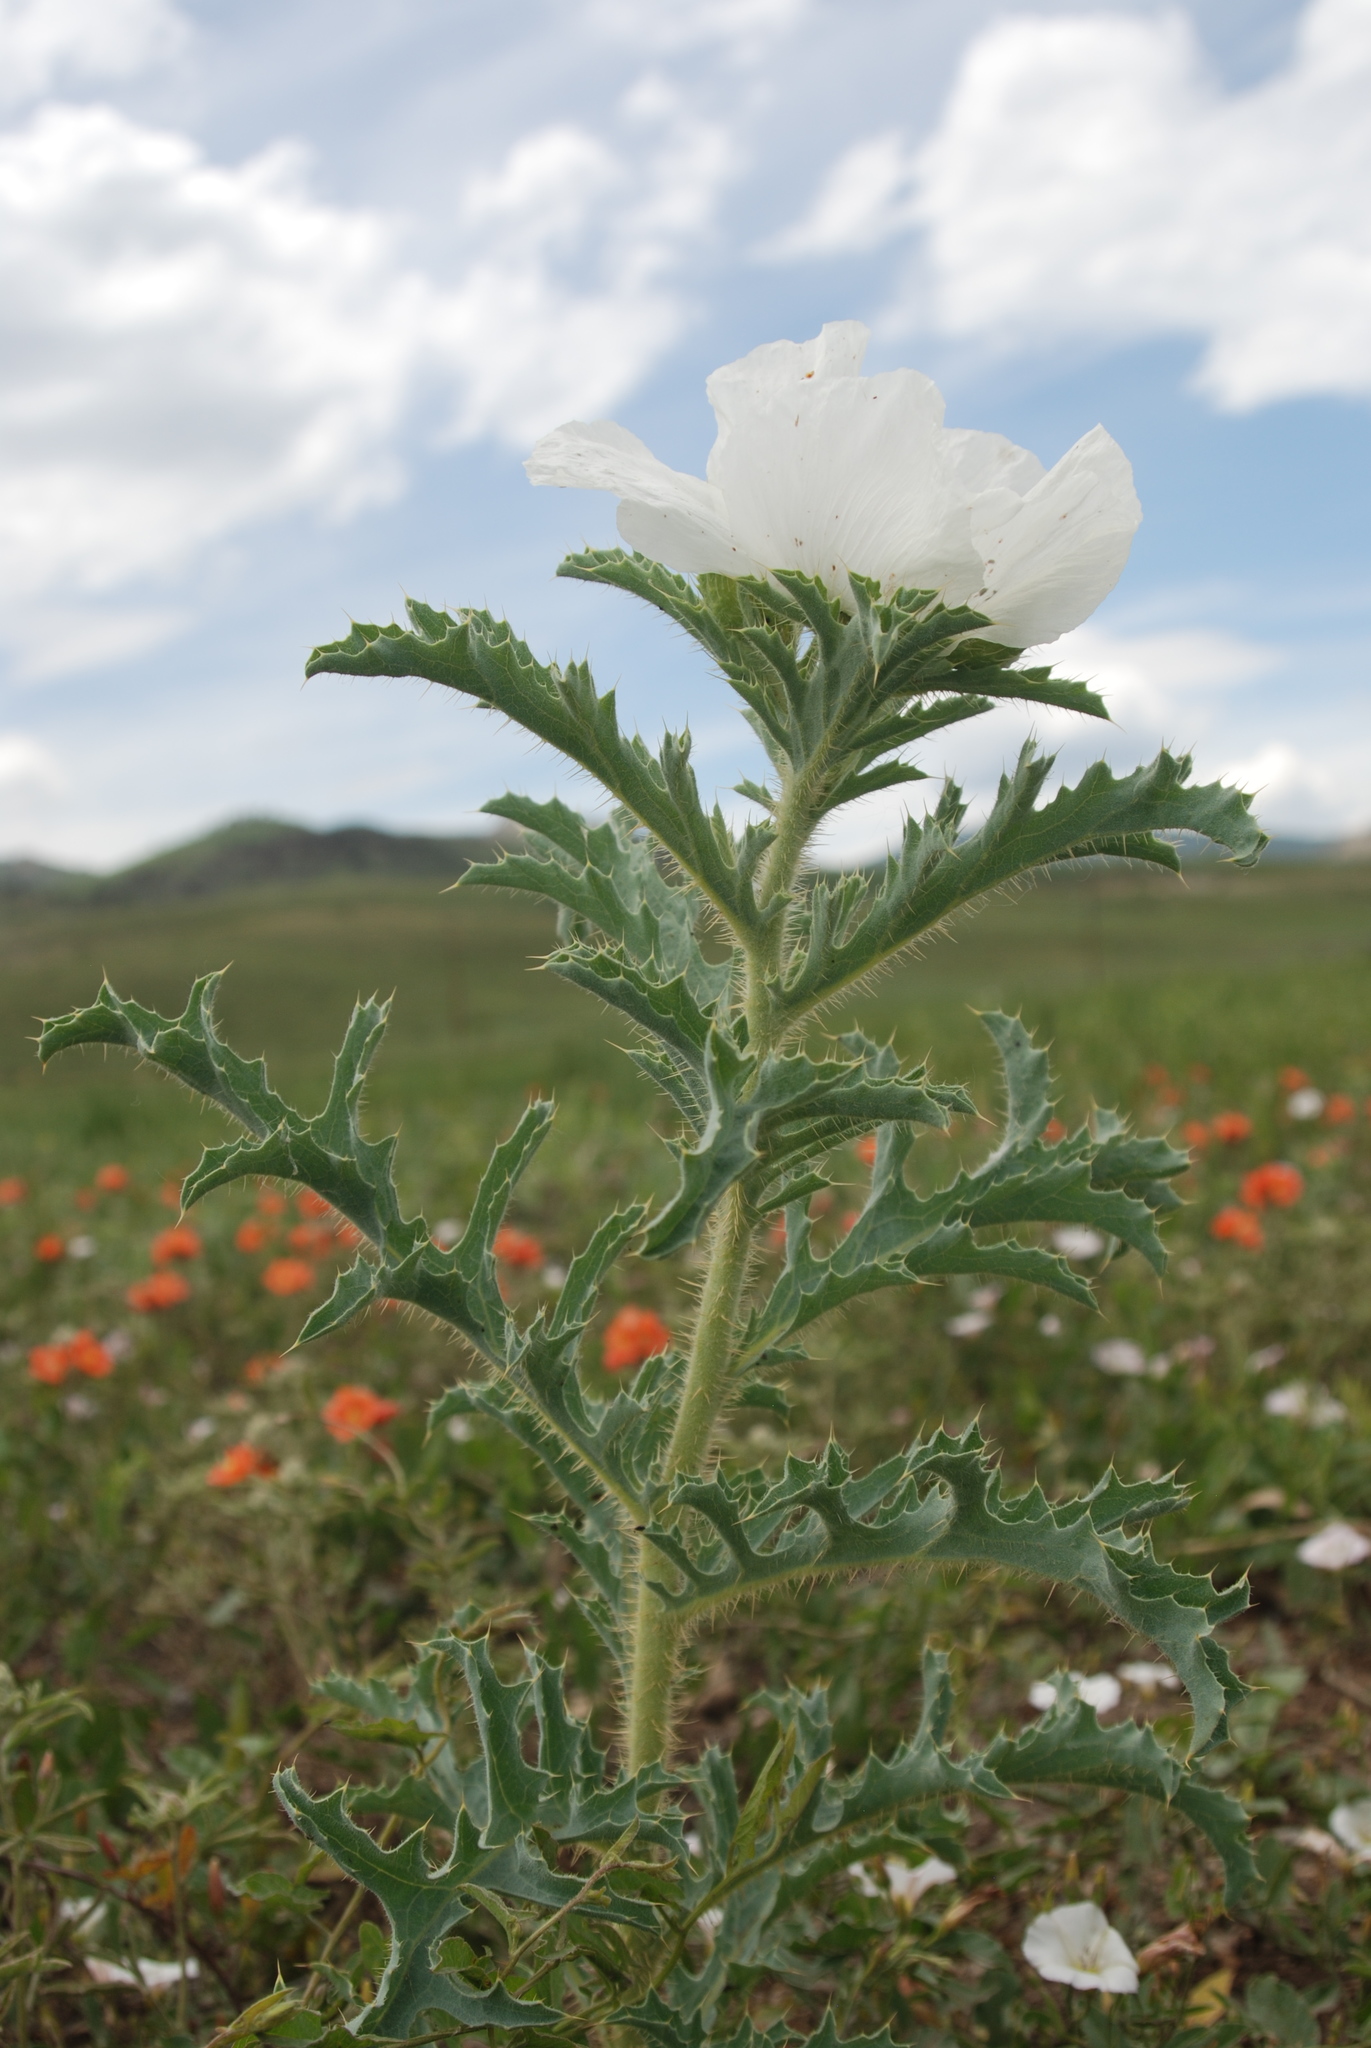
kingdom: Plantae
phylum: Tracheophyta
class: Magnoliopsida
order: Ranunculales
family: Papaveraceae
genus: Argemone
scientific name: Argemone hispida
